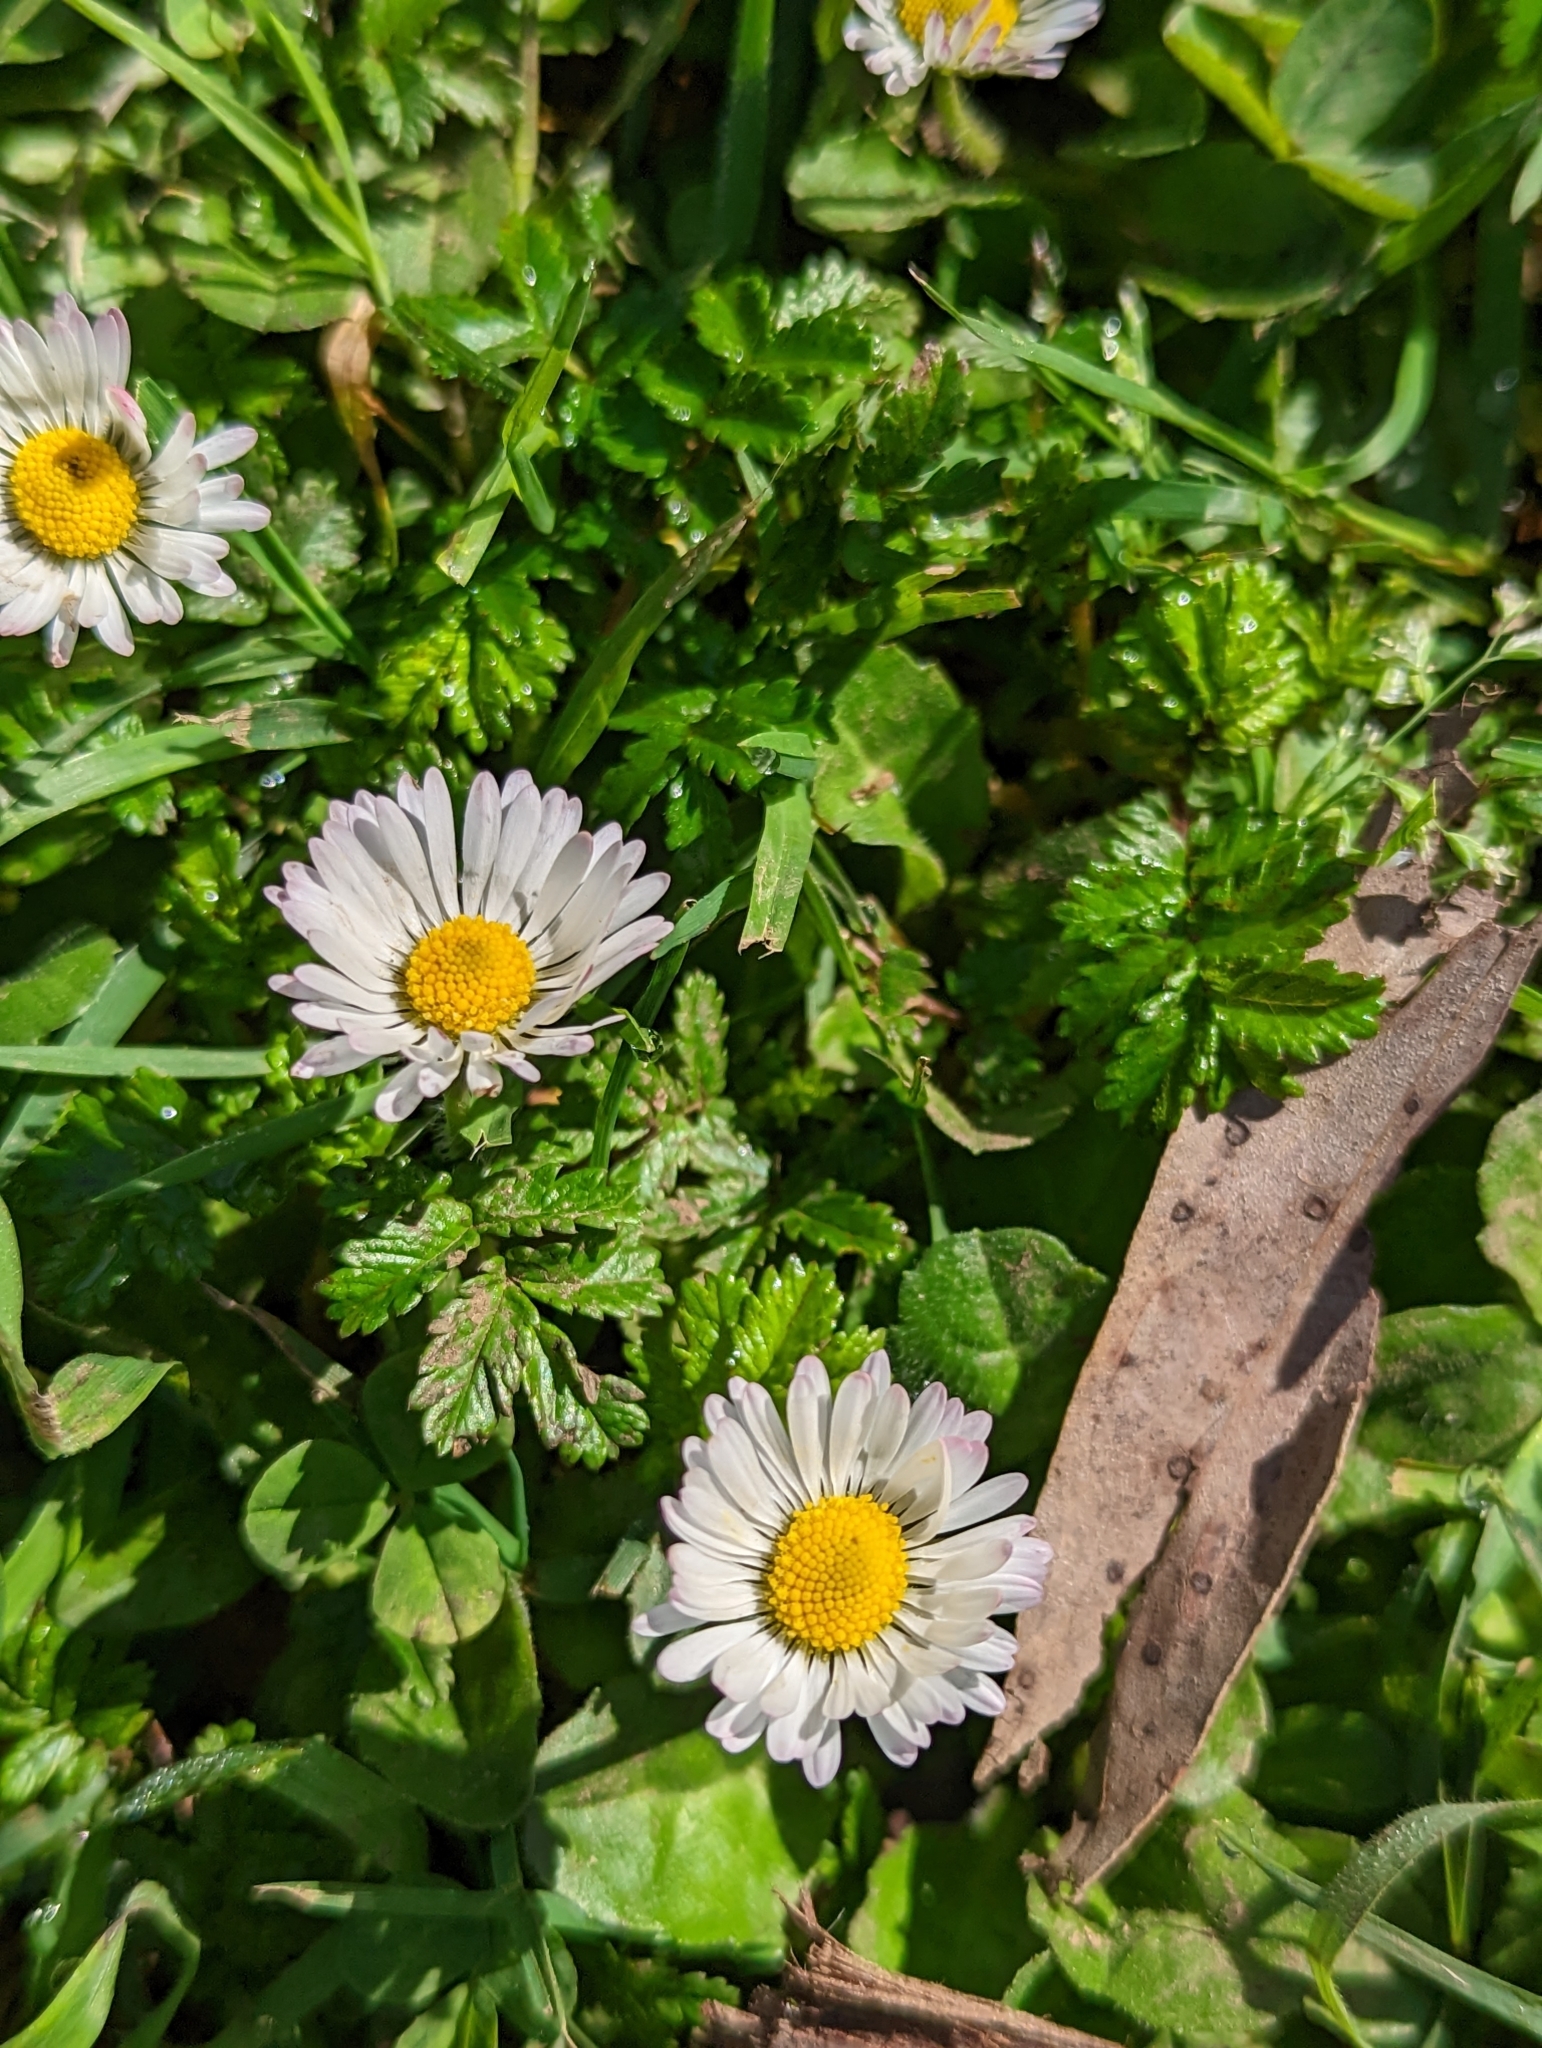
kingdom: Plantae
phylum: Tracheophyta
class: Magnoliopsida
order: Asterales
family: Asteraceae
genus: Bellis
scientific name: Bellis perennis
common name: Lawndaisy
